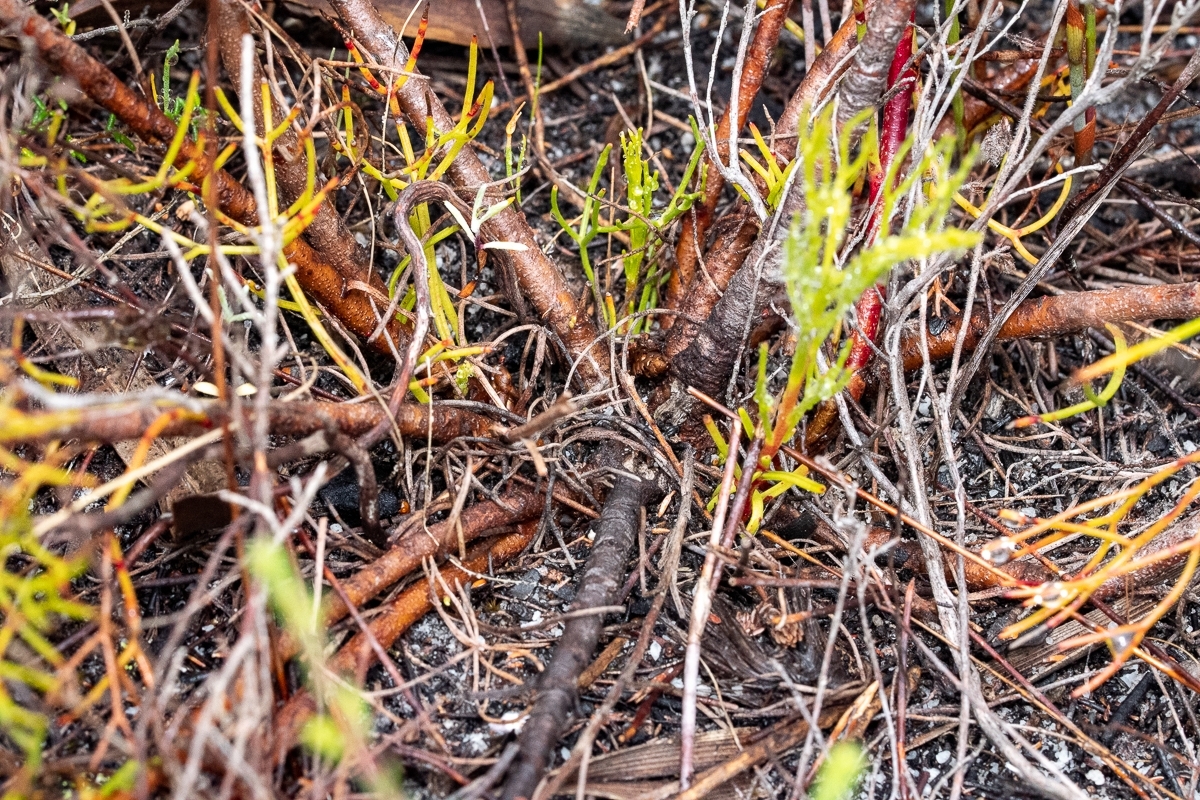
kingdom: Plantae
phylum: Tracheophyta
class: Magnoliopsida
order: Proteales
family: Proteaceae
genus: Serruria
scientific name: Serruria rubricaulis
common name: Red-stem spiderhead
